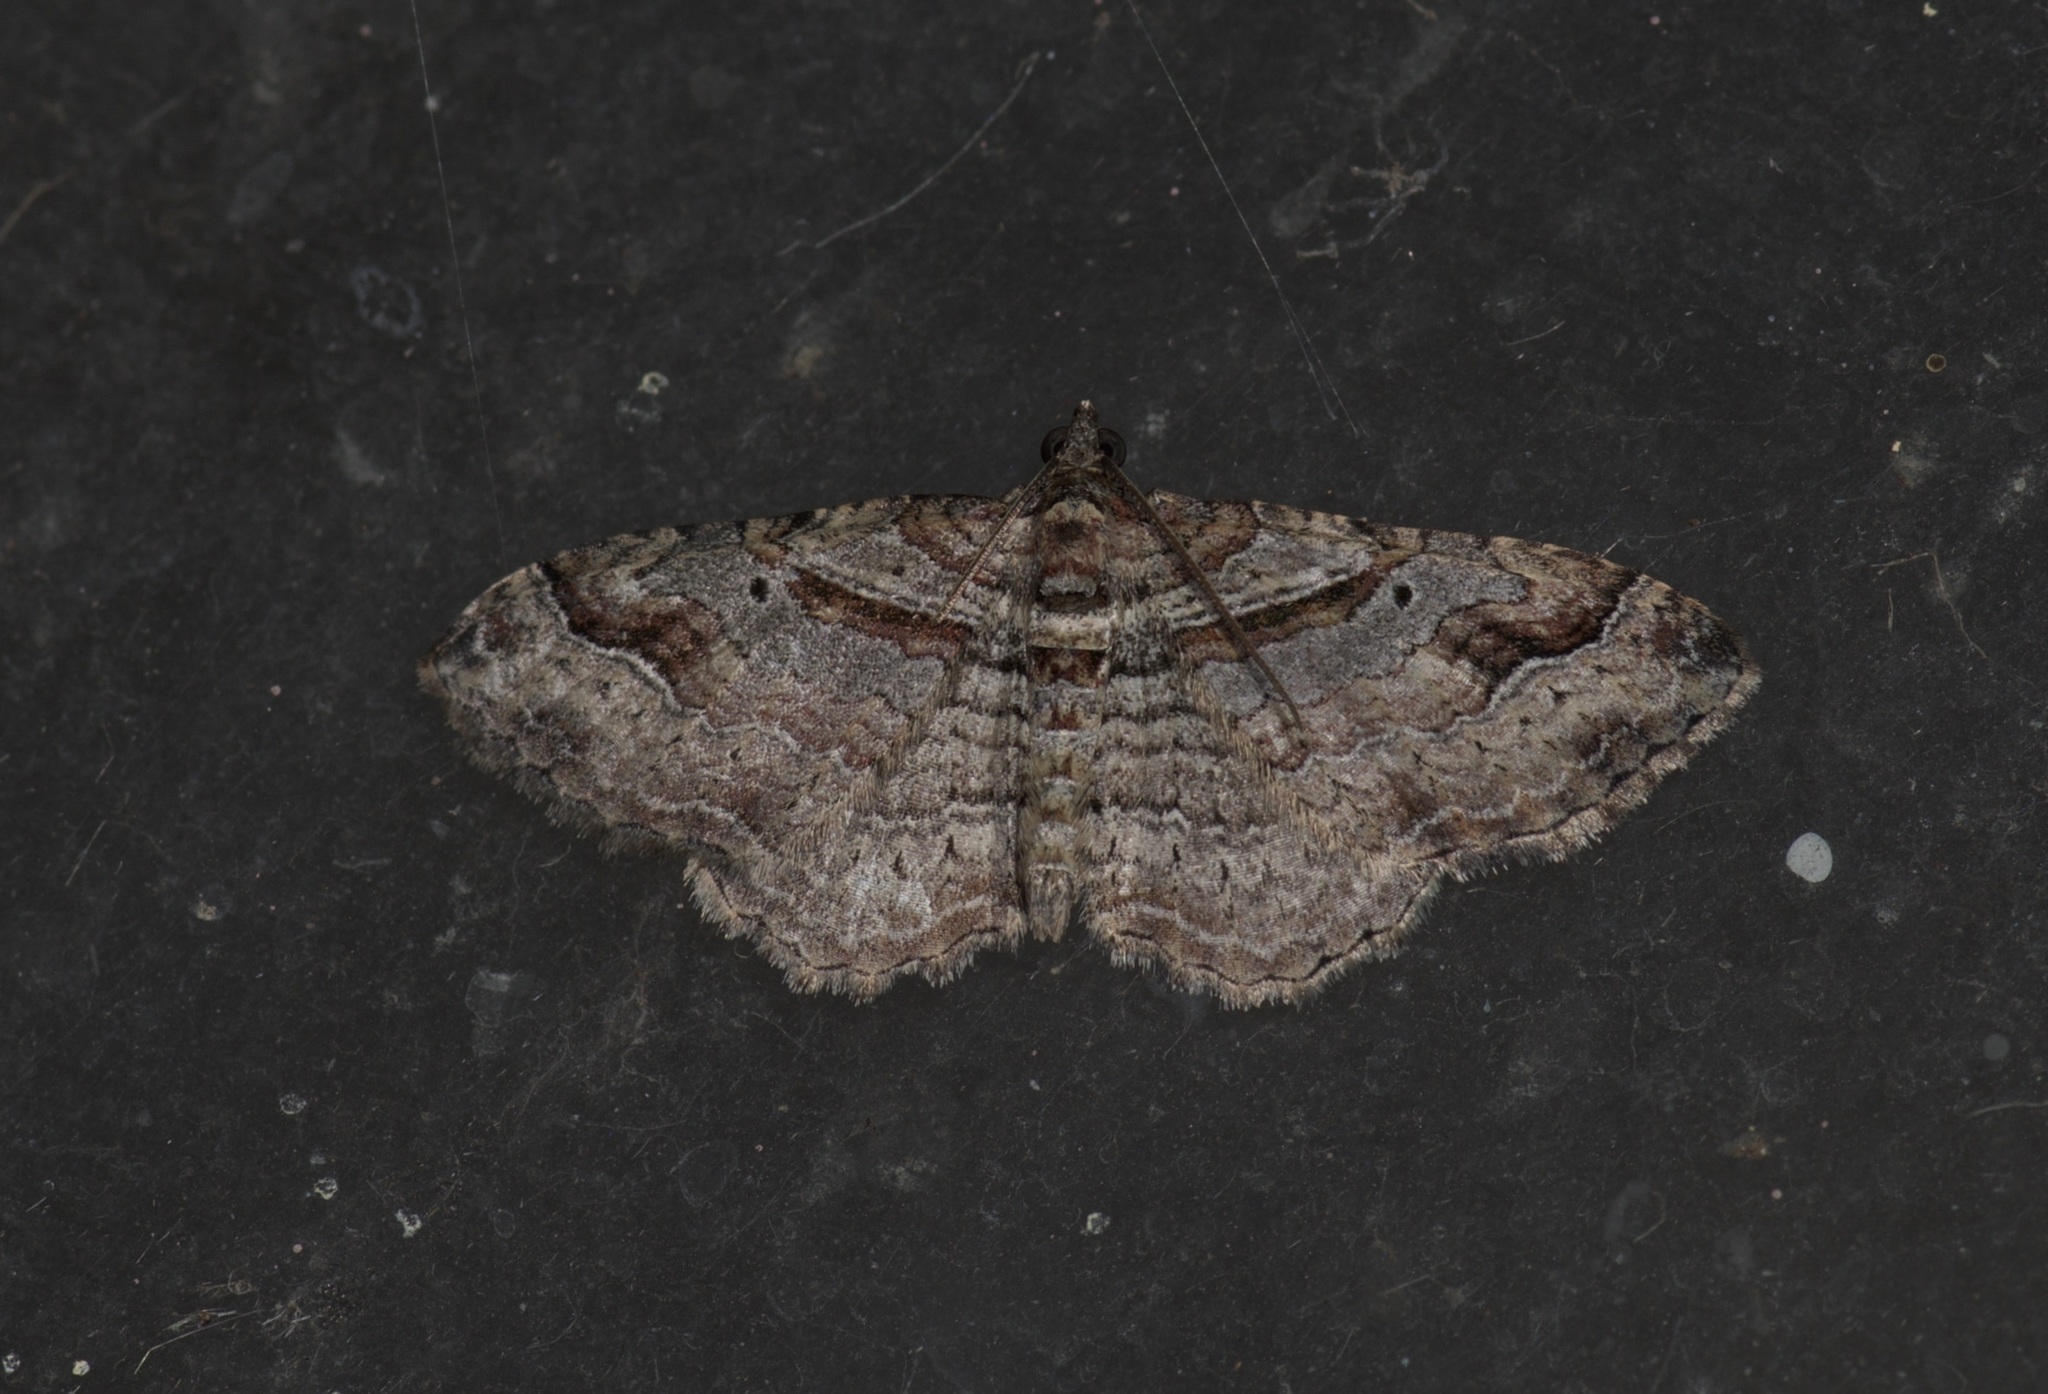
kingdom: Animalia
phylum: Arthropoda
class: Insecta
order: Lepidoptera
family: Geometridae
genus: Costaconvexa
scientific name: Costaconvexa centrostrigaria
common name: Bent-line carpet
